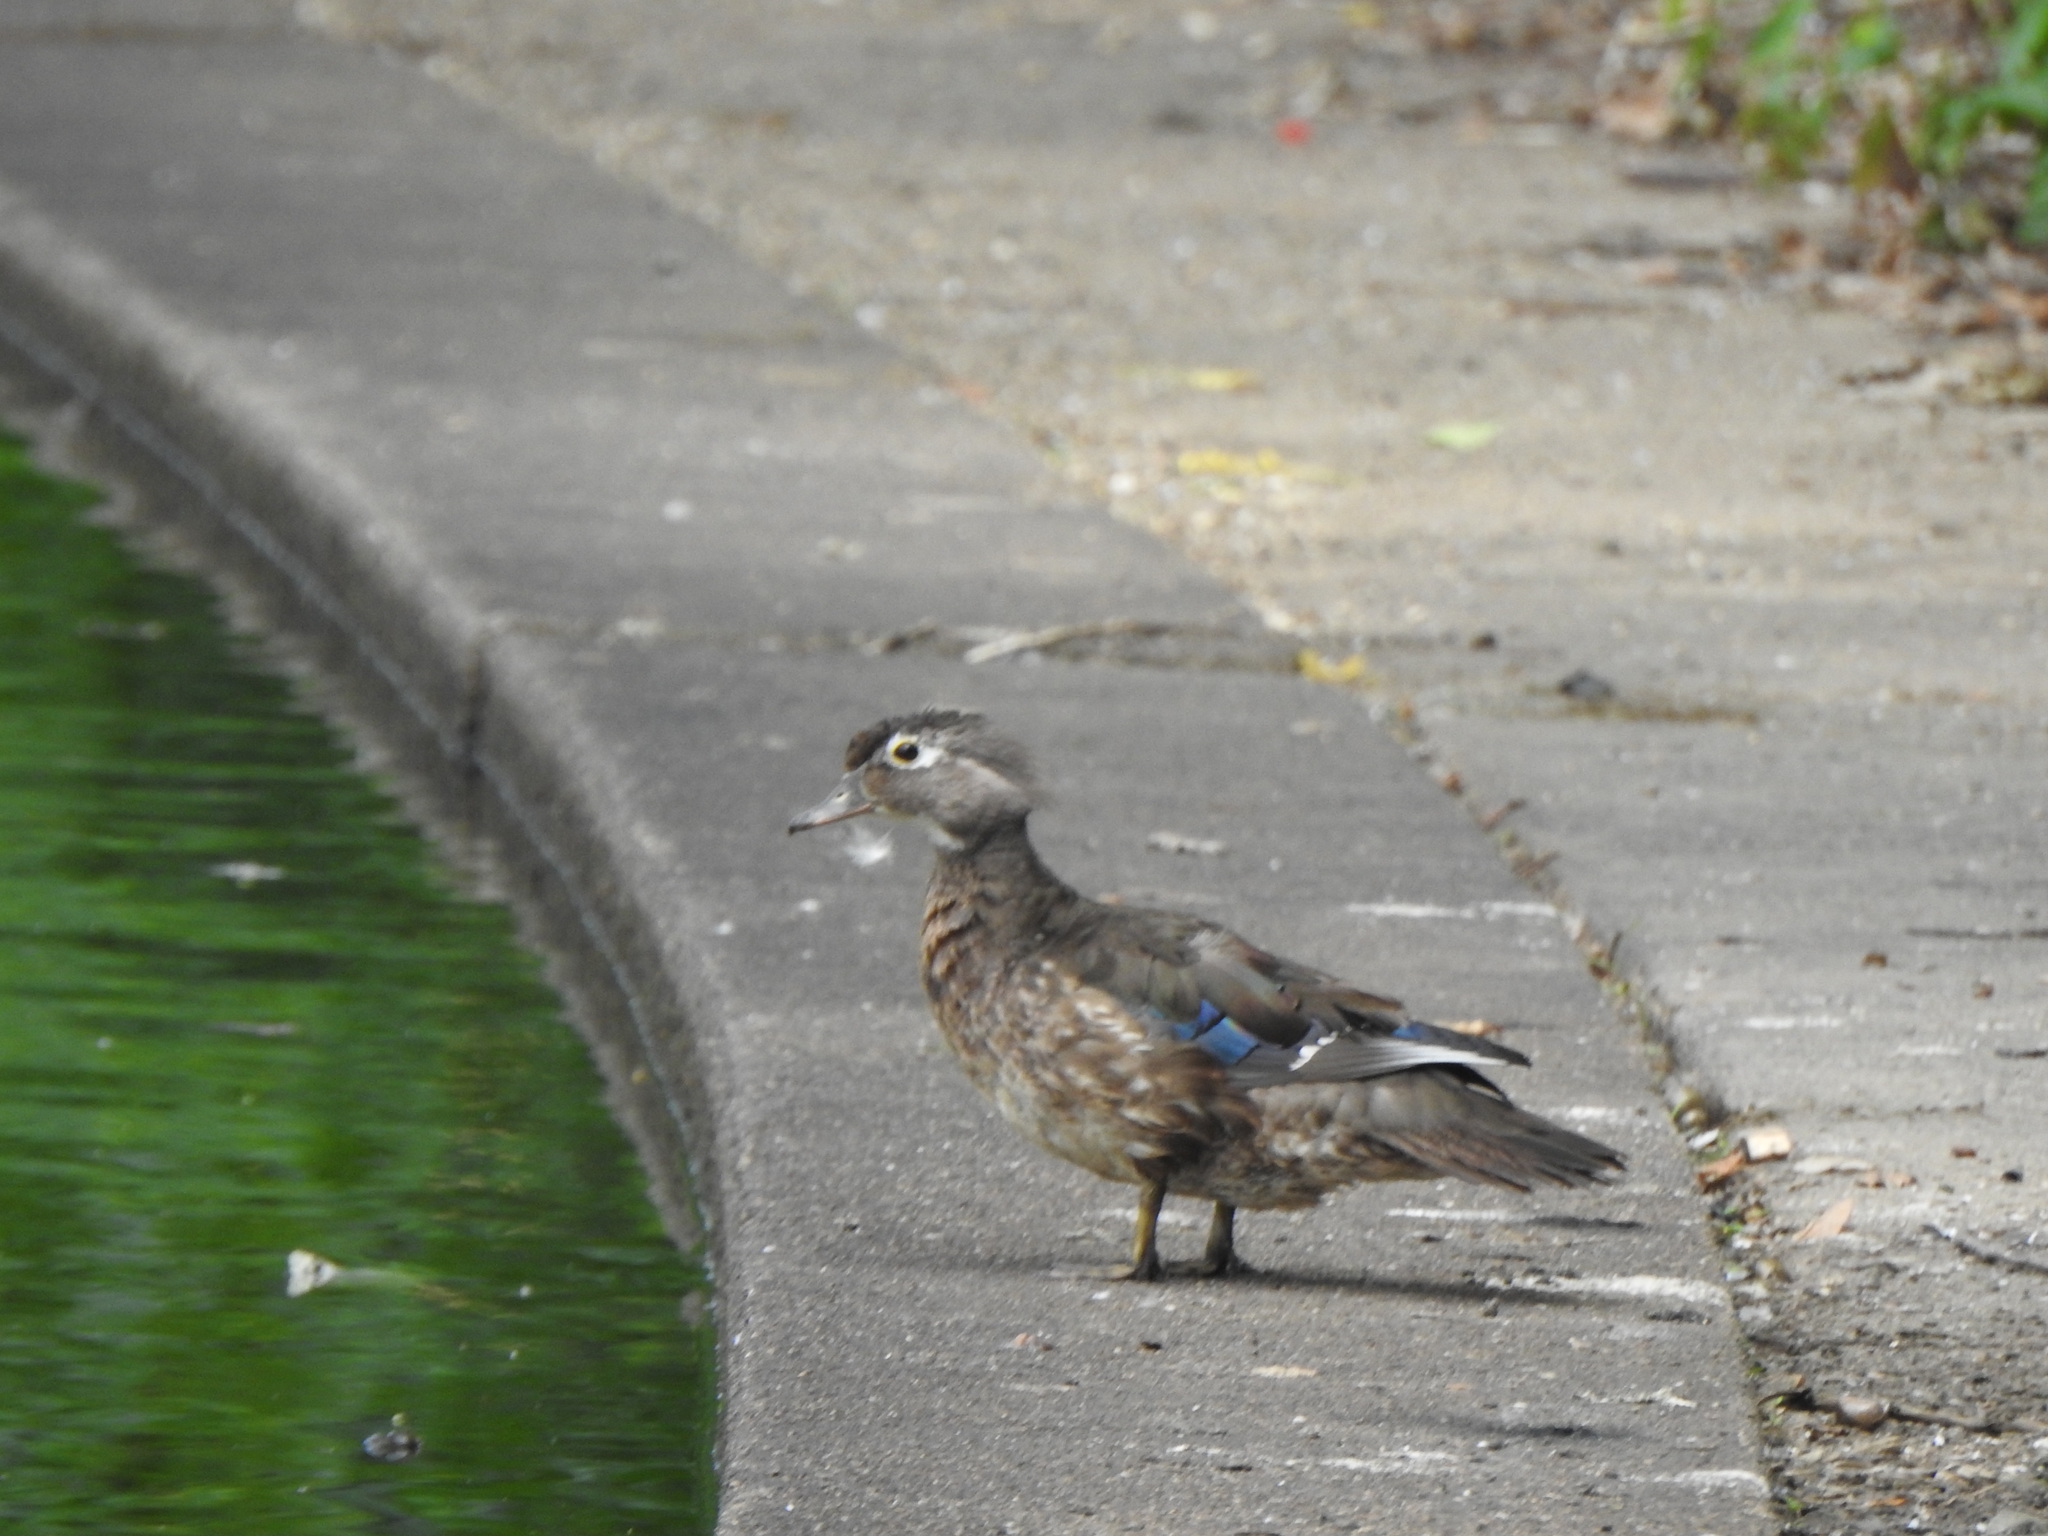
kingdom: Animalia
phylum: Chordata
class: Aves
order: Anseriformes
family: Anatidae
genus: Aix
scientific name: Aix sponsa
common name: Wood duck
